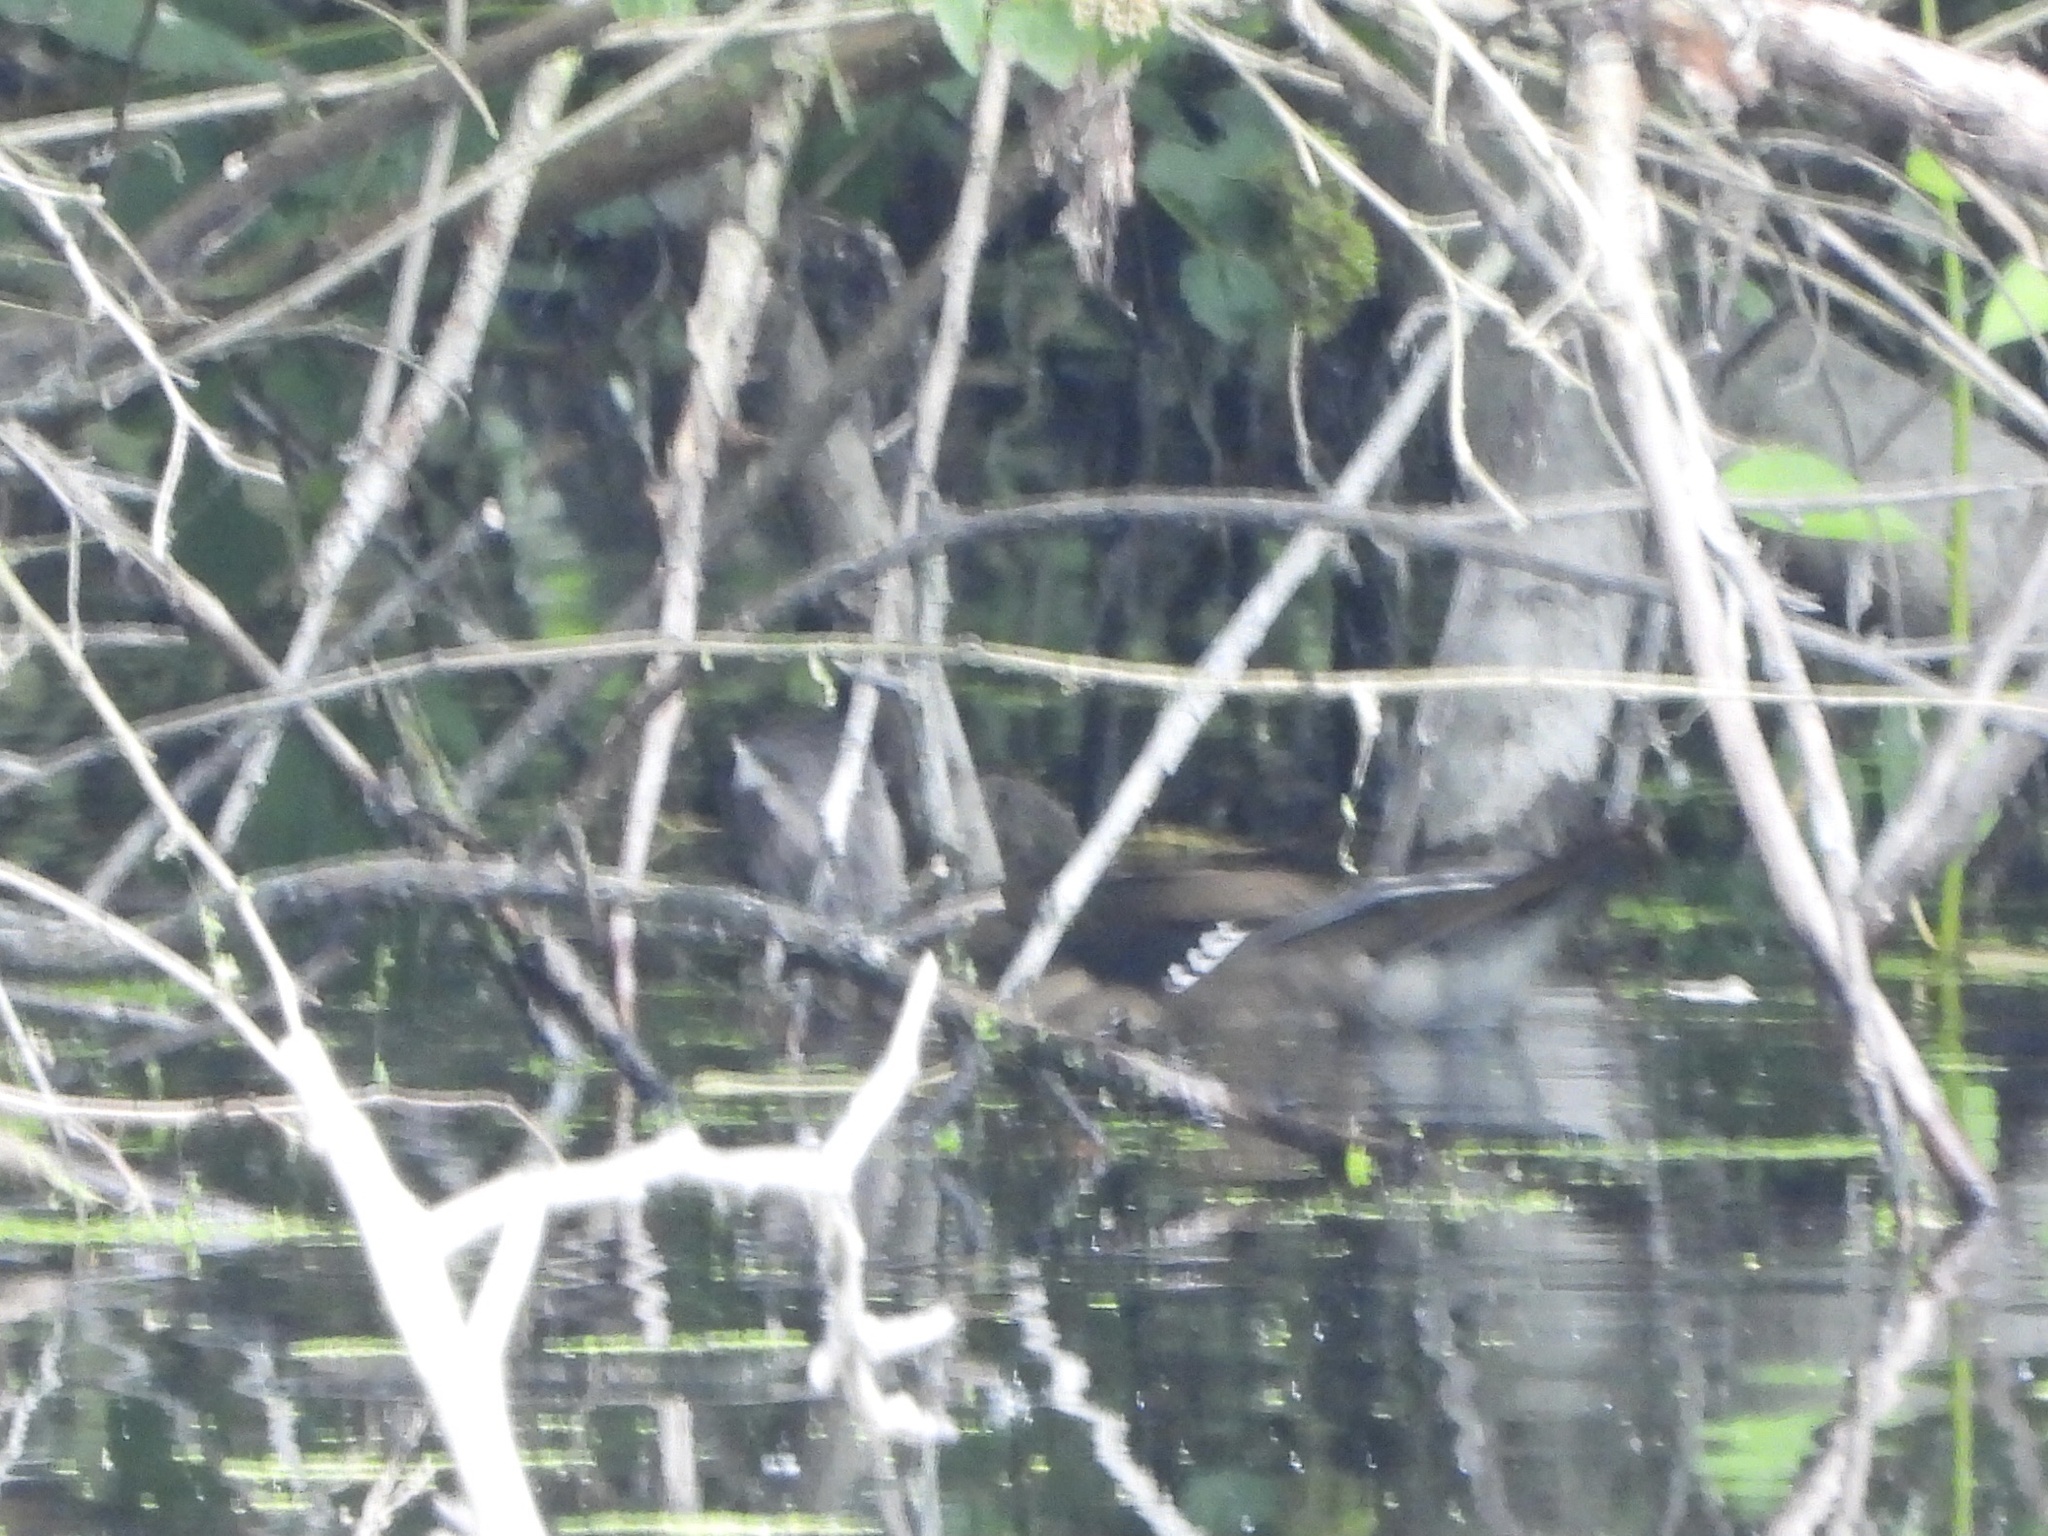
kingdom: Animalia
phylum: Chordata
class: Aves
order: Anseriformes
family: Anatidae
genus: Aix
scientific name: Aix sponsa
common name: Wood duck
